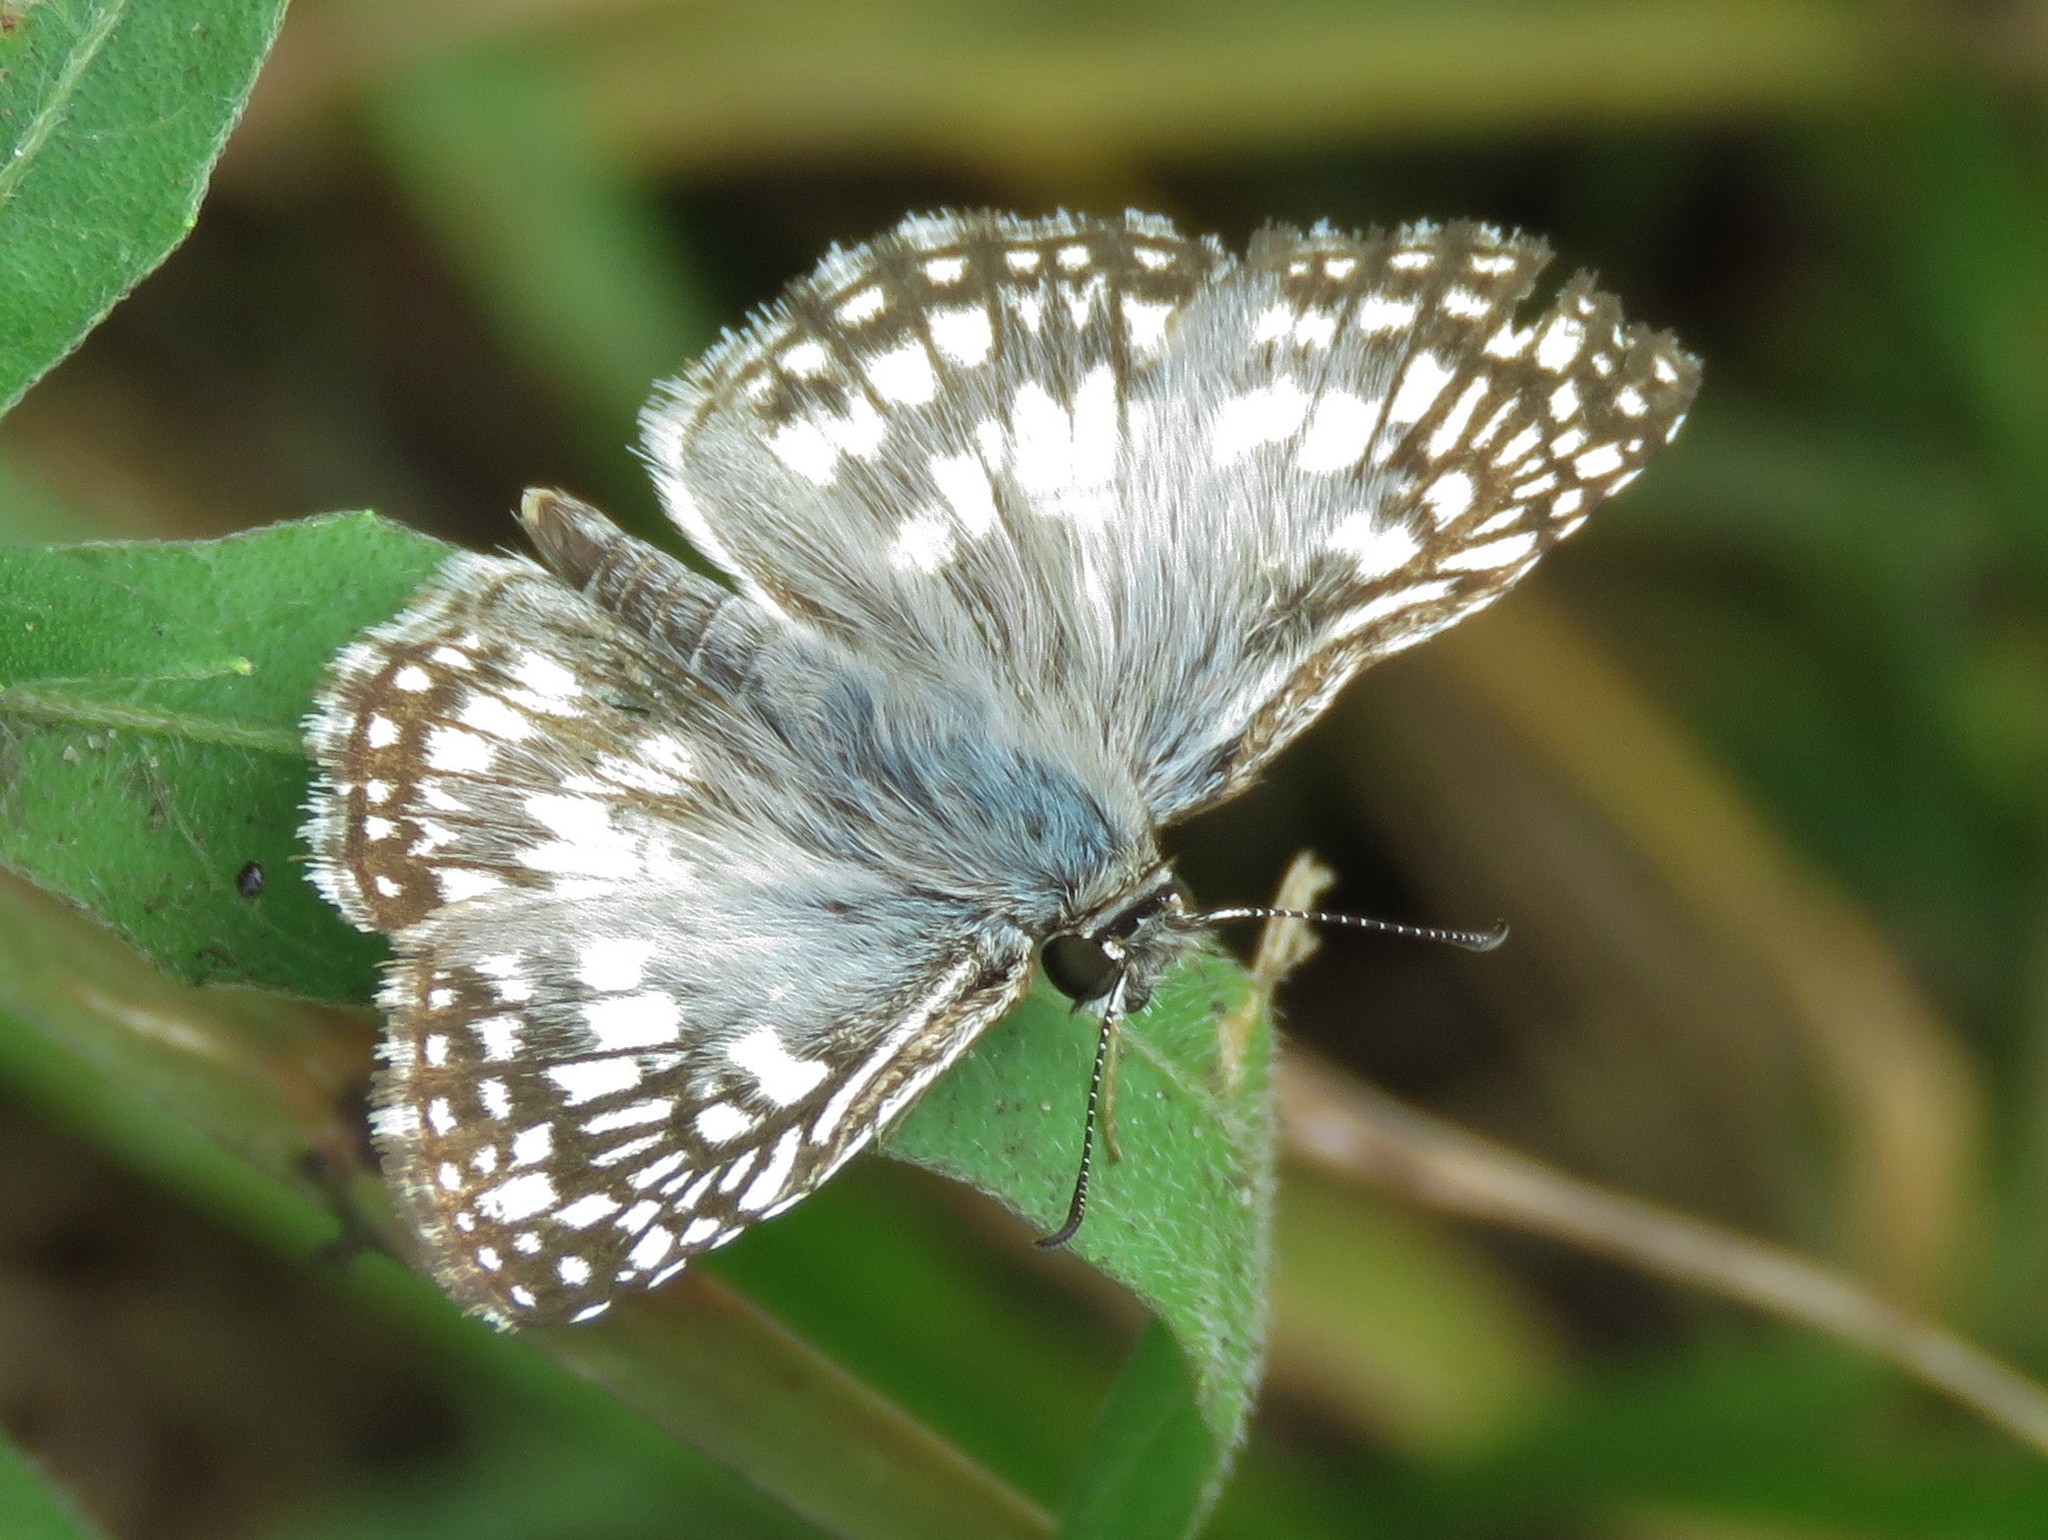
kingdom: Animalia
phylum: Arthropoda
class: Insecta
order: Lepidoptera
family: Hesperiidae
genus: Pyrgus
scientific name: Pyrgus oileus
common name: Tropical checkered-skipper
